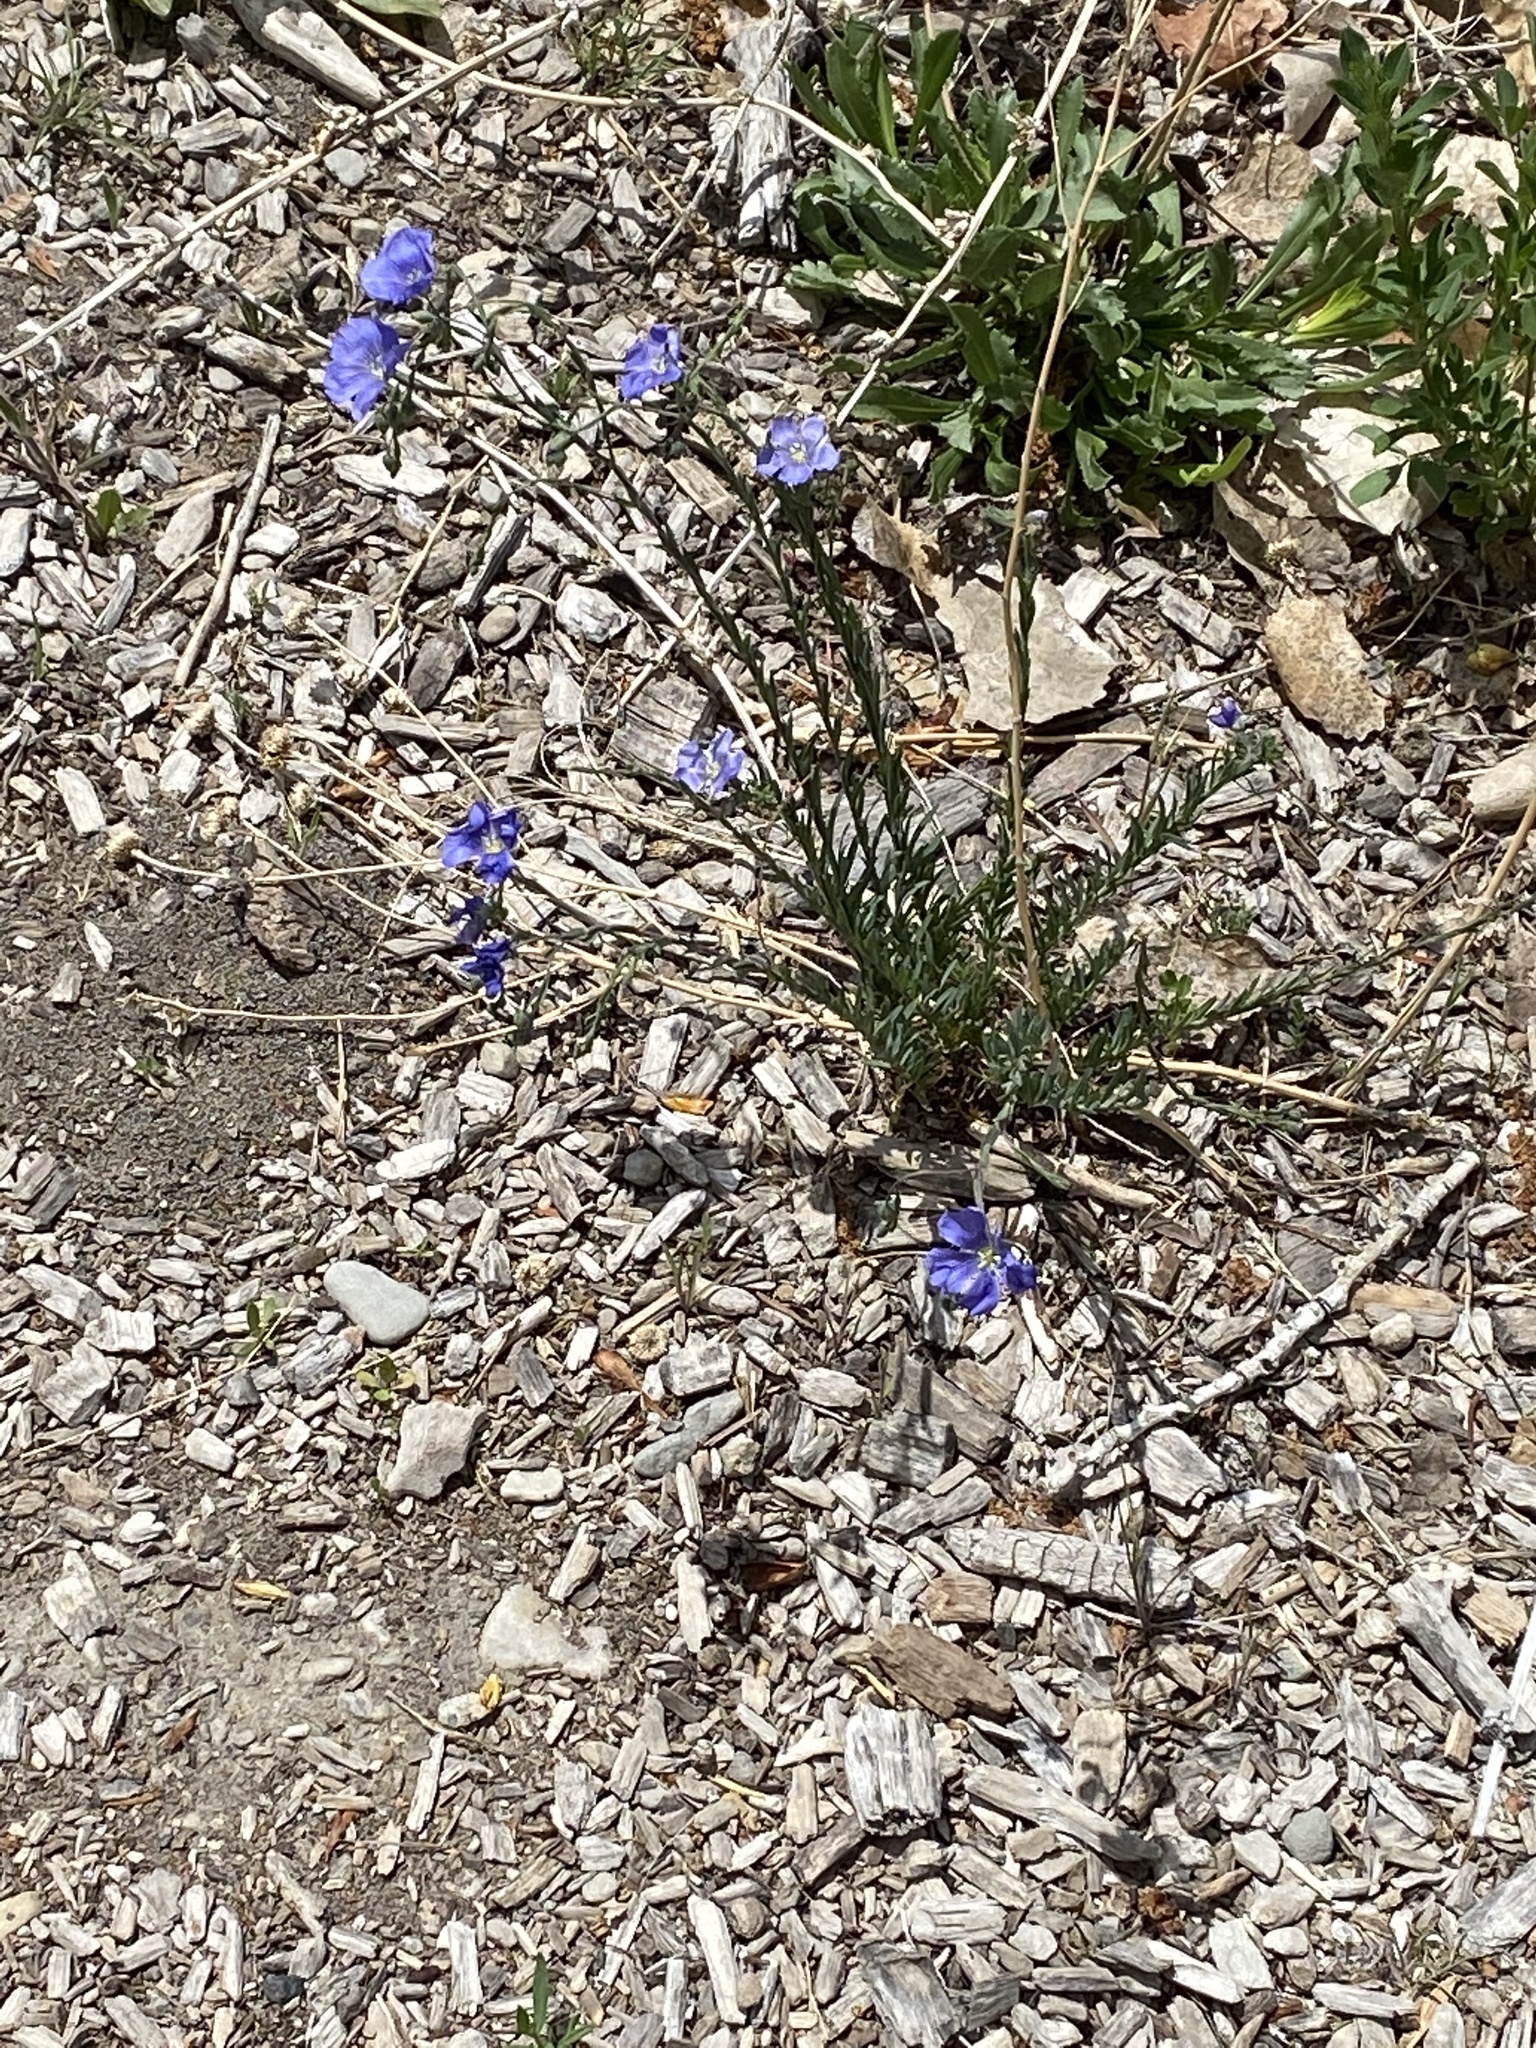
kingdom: Plantae
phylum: Tracheophyta
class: Magnoliopsida
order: Malpighiales
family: Linaceae
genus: Linum
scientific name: Linum lewisii
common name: Prairie flax
